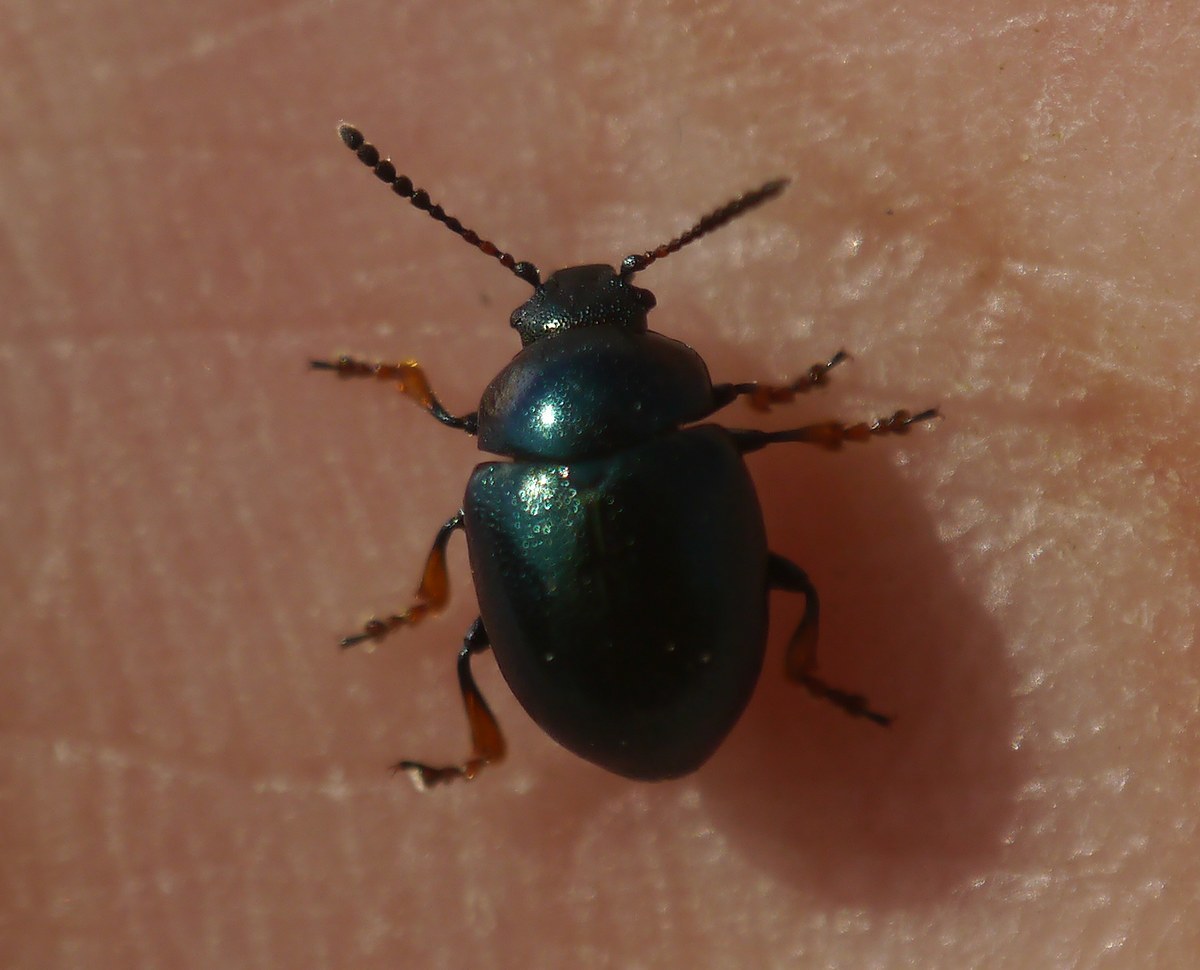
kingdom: Animalia
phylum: Arthropoda
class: Insecta
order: Coleoptera
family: Chrysomelidae
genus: Colaphellus
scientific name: Colaphellus sophiae
